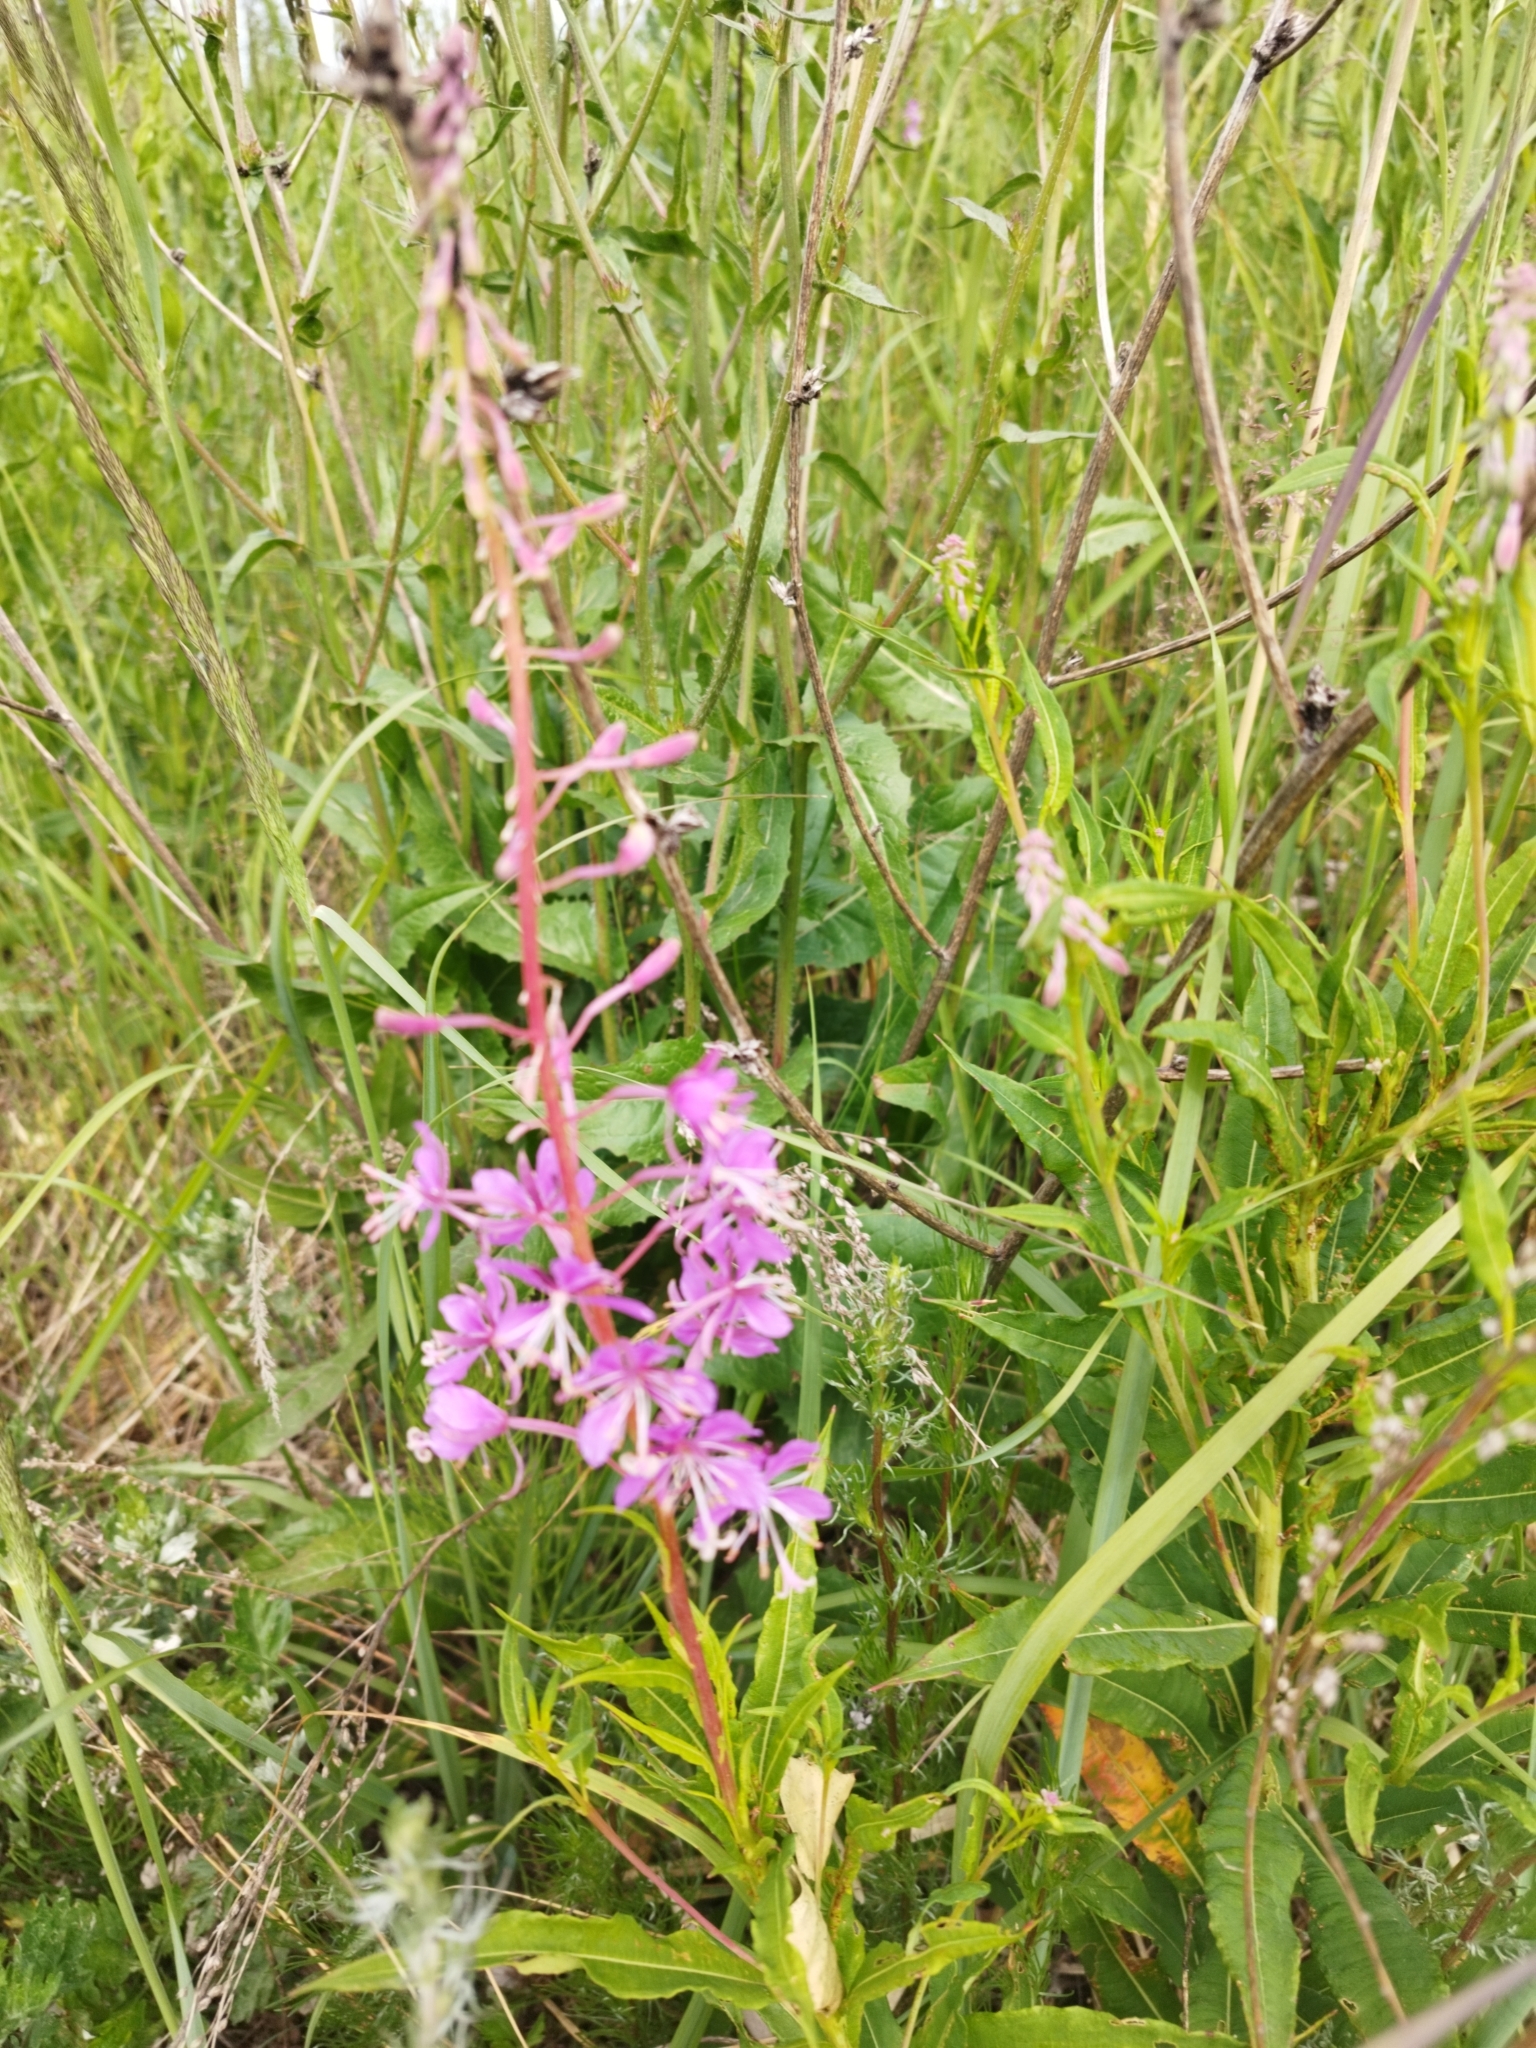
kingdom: Plantae
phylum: Tracheophyta
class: Magnoliopsida
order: Myrtales
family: Onagraceae
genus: Chamaenerion
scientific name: Chamaenerion angustifolium
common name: Fireweed
